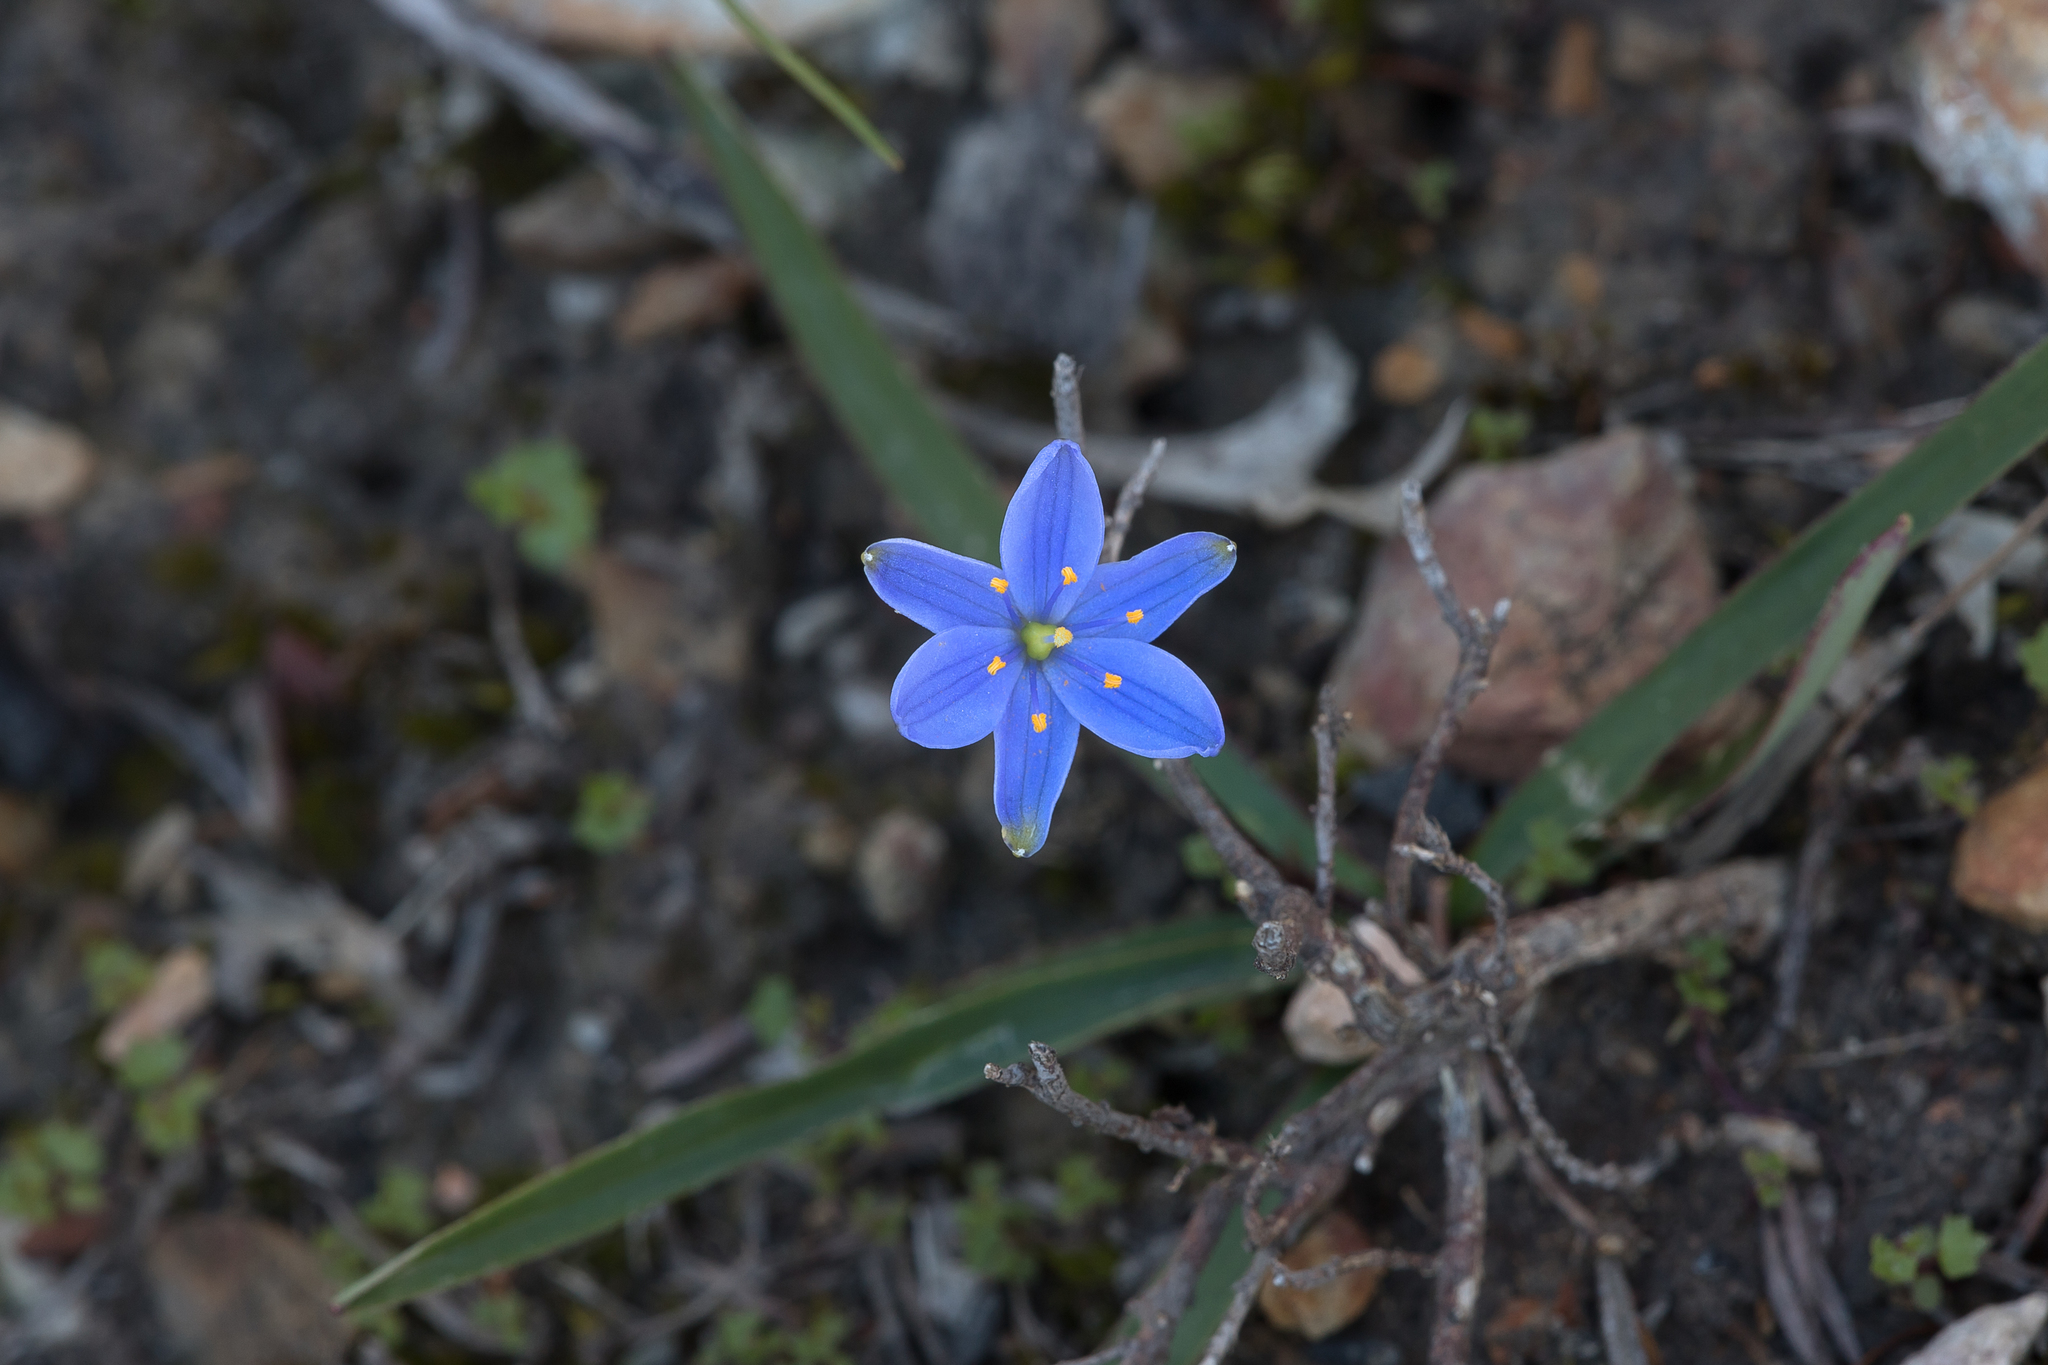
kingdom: Plantae
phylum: Tracheophyta
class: Liliopsida
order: Asparagales
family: Asphodelaceae
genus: Chamaescilla
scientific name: Chamaescilla corymbosa
